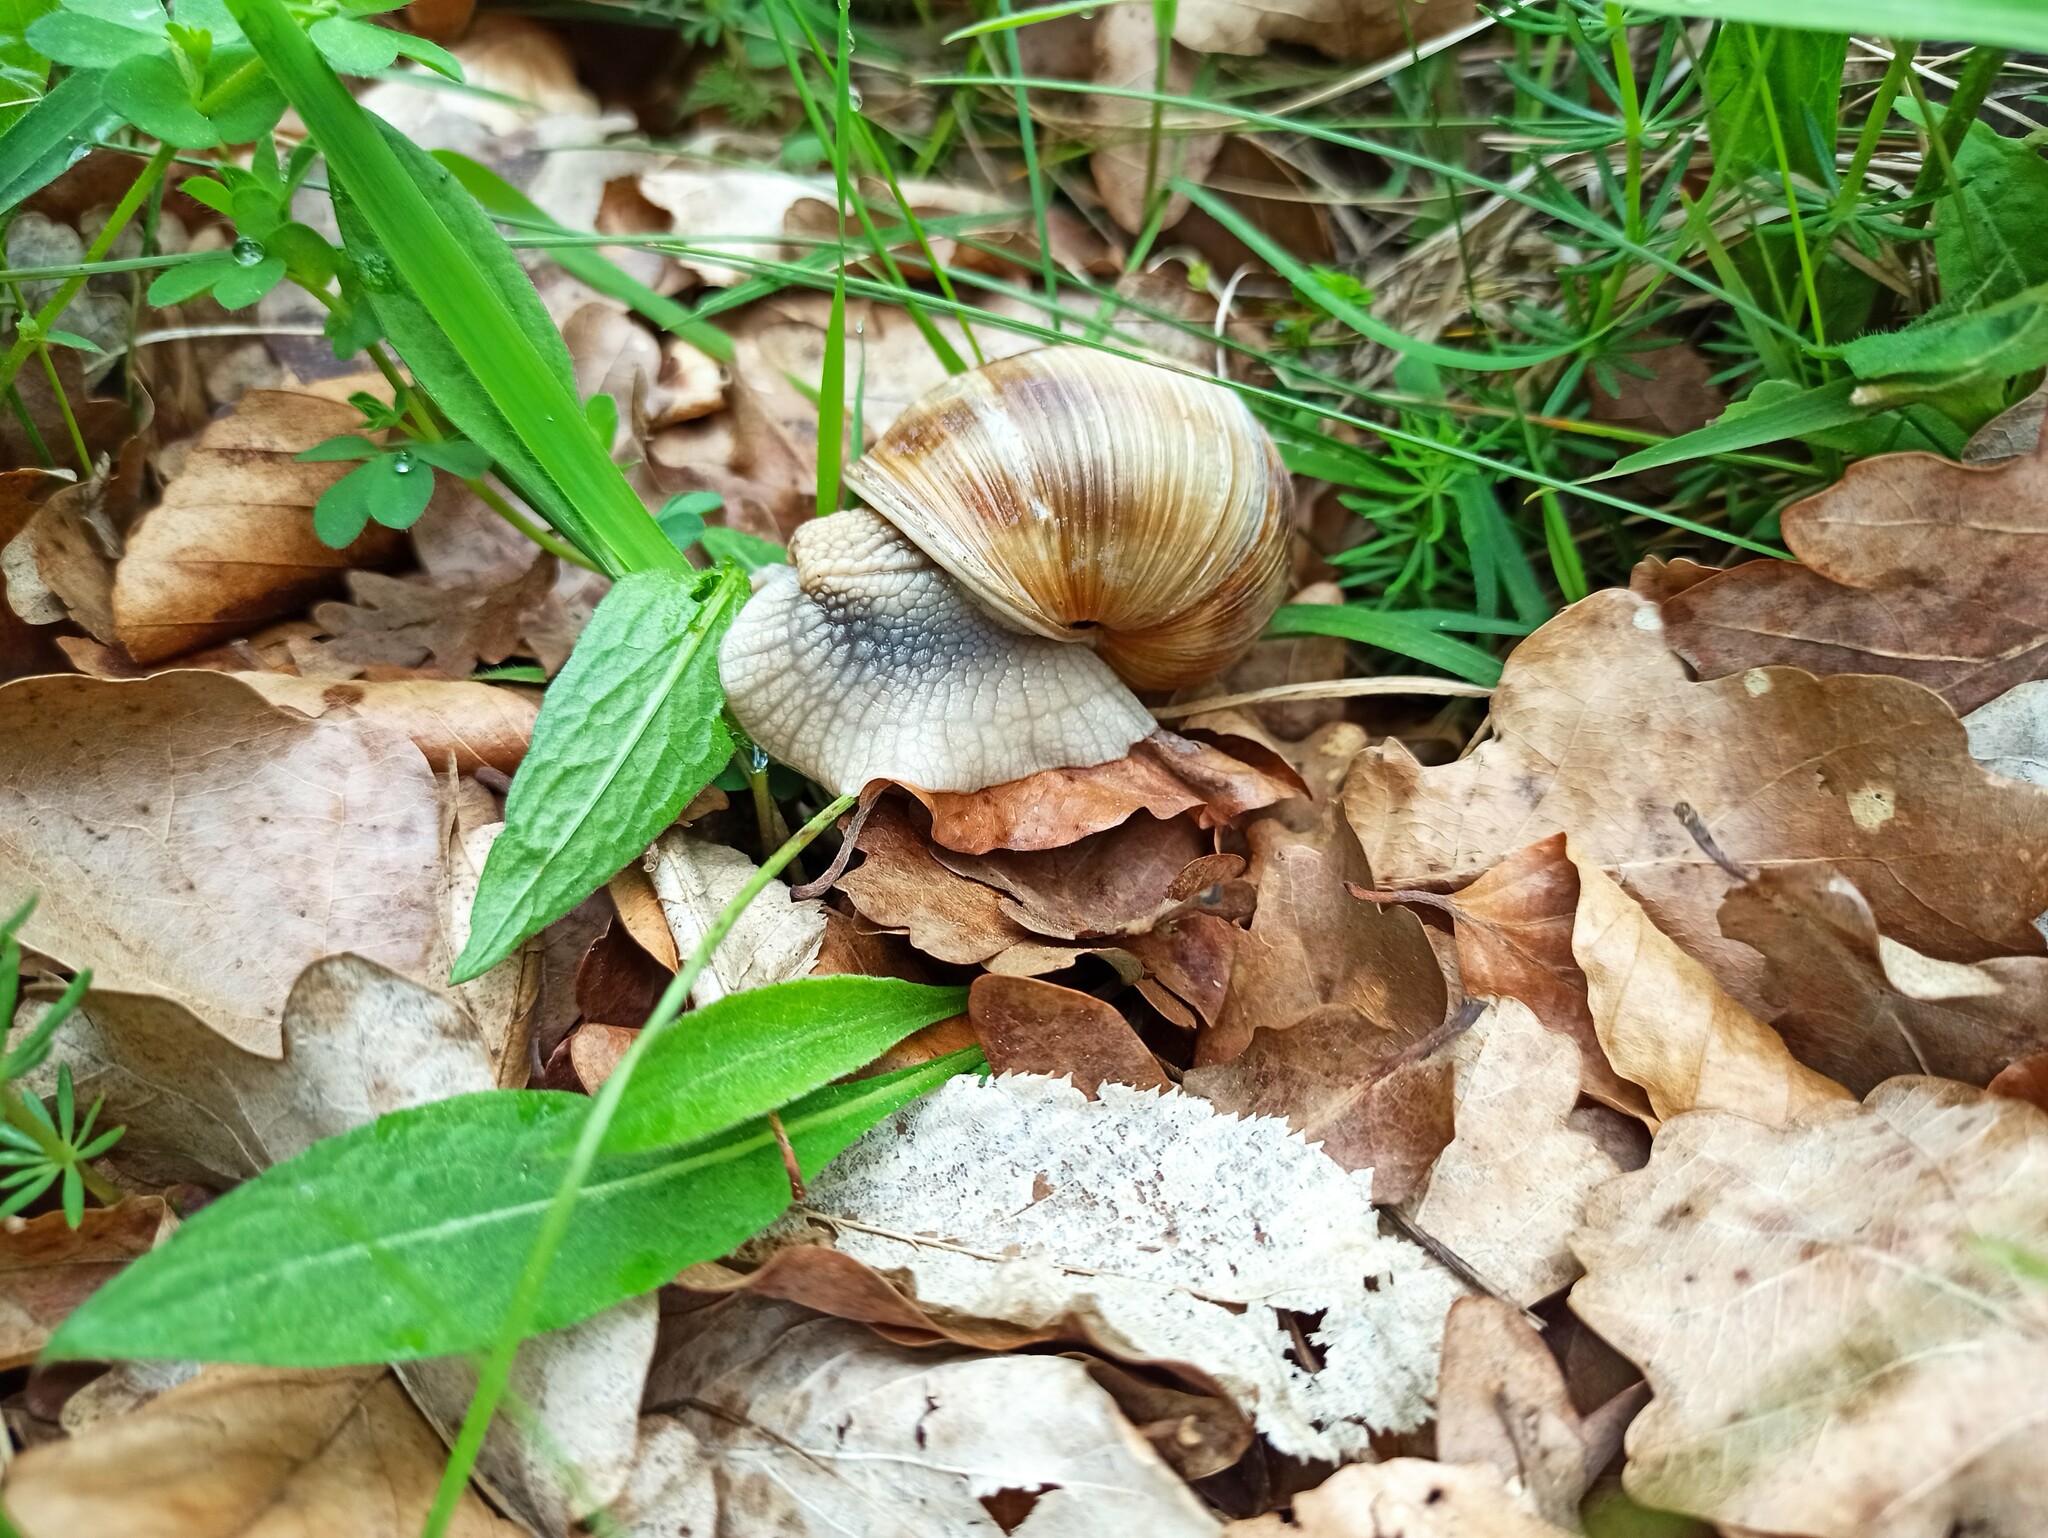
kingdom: Animalia
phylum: Mollusca
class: Gastropoda
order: Stylommatophora
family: Helicidae
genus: Helix
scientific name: Helix pomatia
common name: Roman snail
